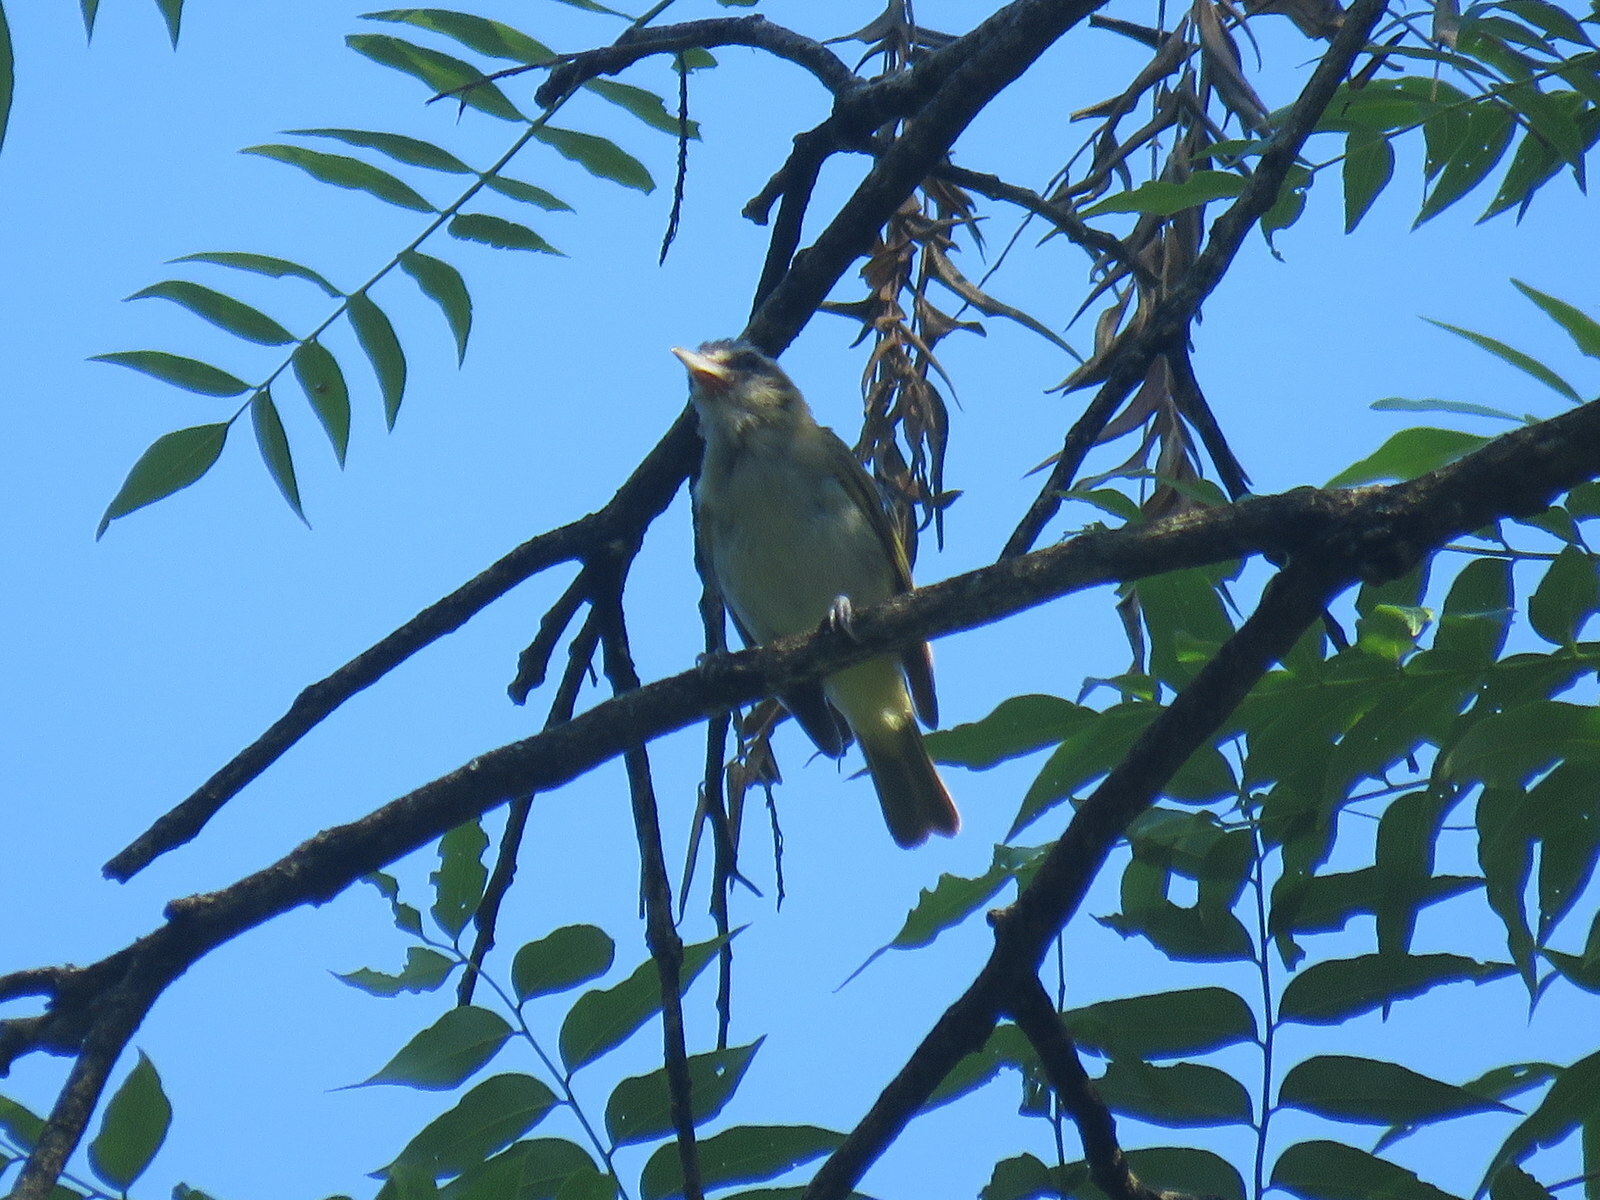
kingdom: Animalia
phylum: Chordata
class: Aves
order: Passeriformes
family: Vireonidae
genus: Vireo
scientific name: Vireo olivaceus
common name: Red-eyed vireo
